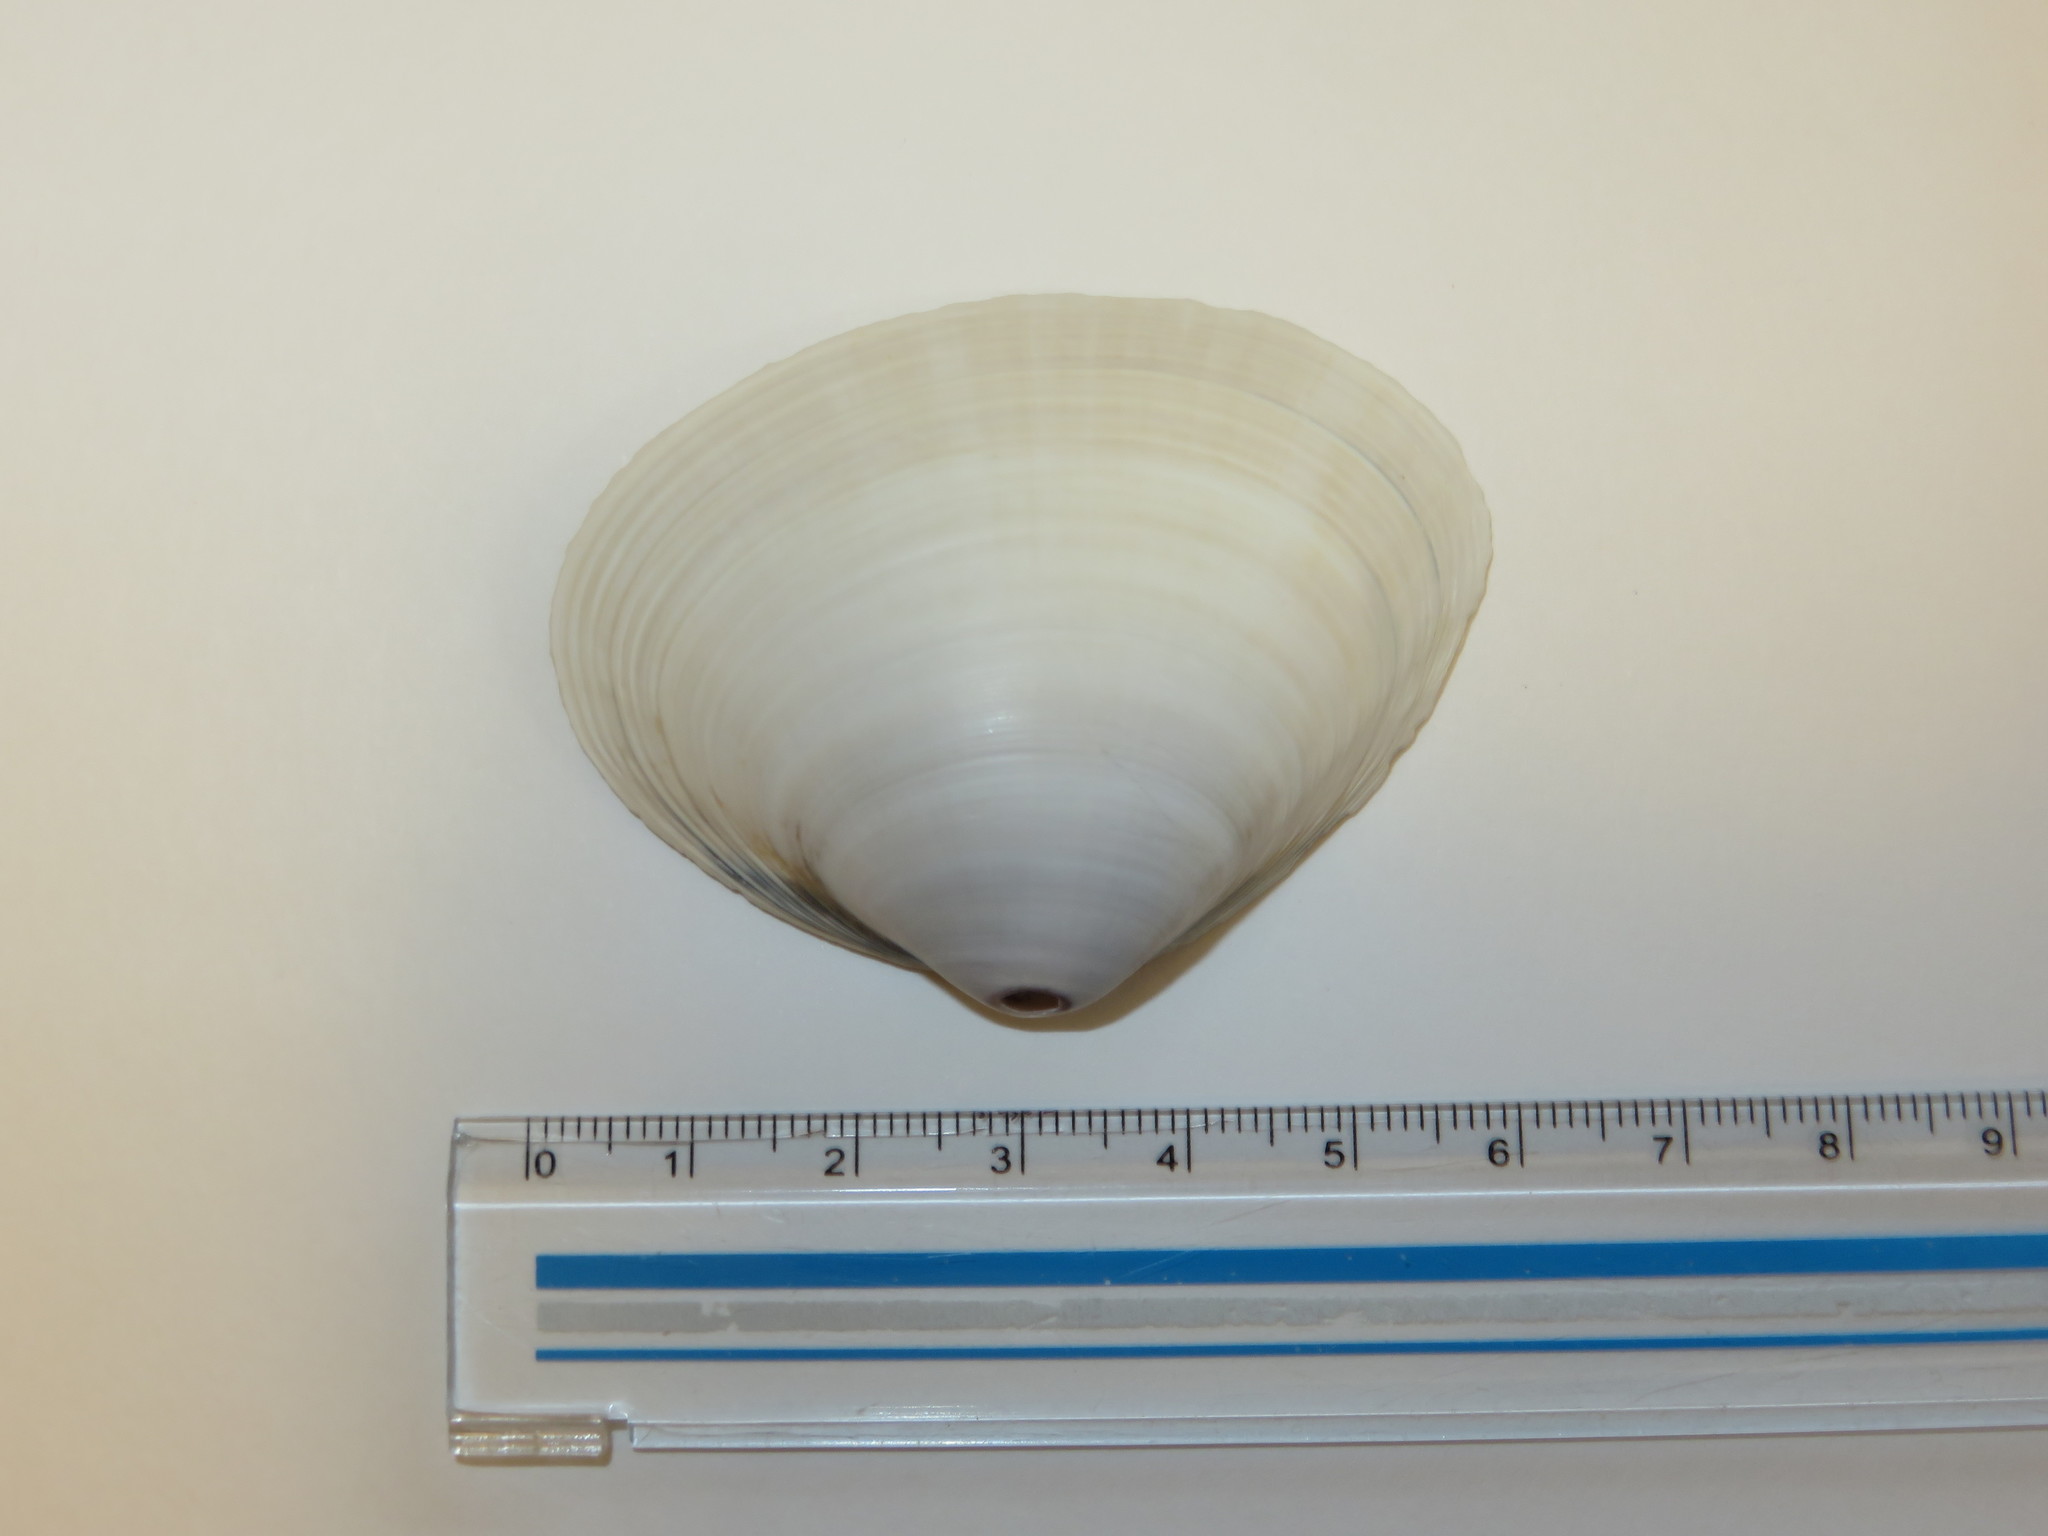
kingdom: Animalia
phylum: Mollusca
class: Bivalvia
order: Venerida
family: Mactridae
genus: Mactra
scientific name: Mactra chinensis
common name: Chinese surf clam
